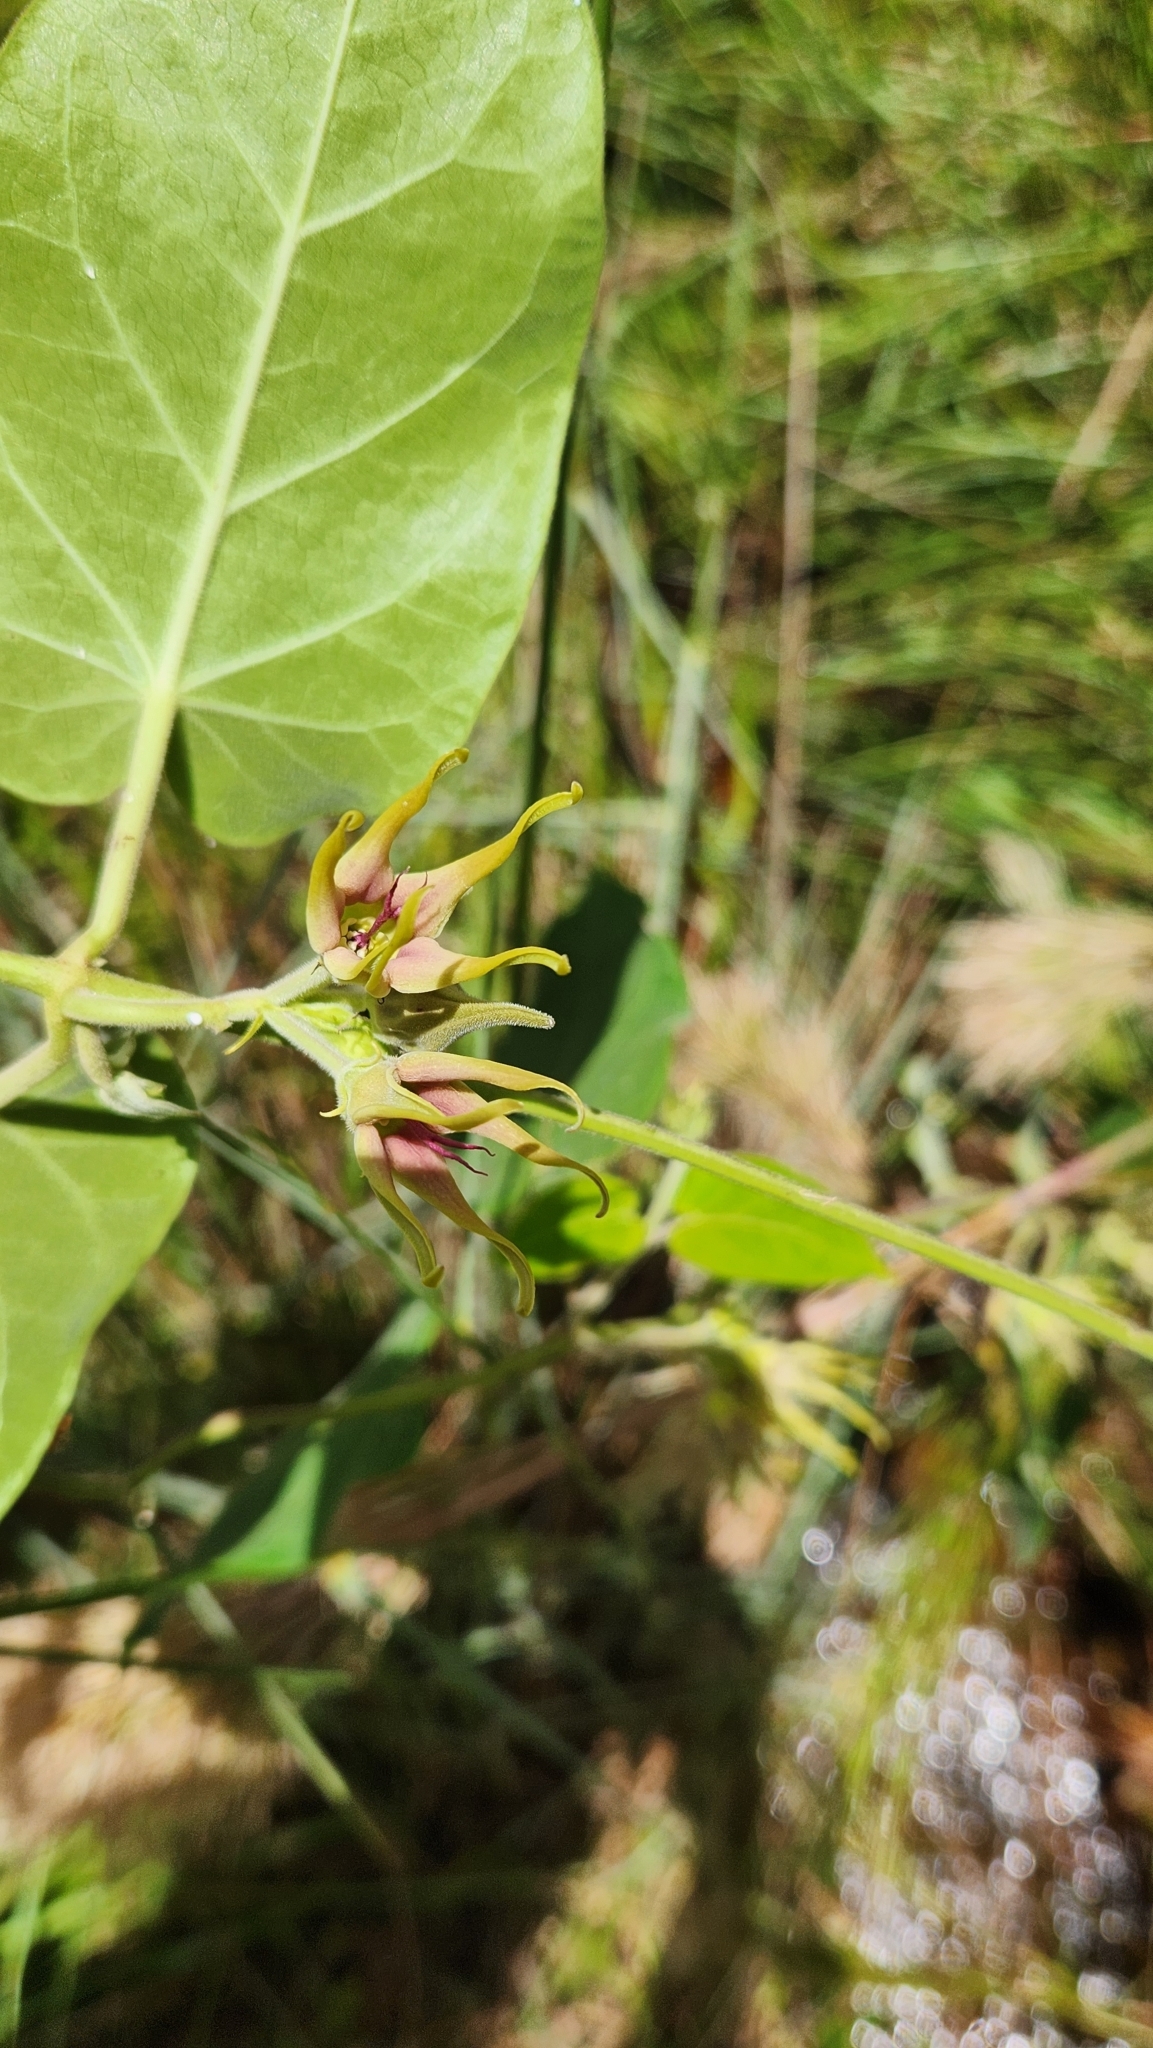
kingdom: Plantae
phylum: Tracheophyta
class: Magnoliopsida
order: Gentianales
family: Apocynaceae
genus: Oxypetalum
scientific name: Oxypetalum appendiculatum
